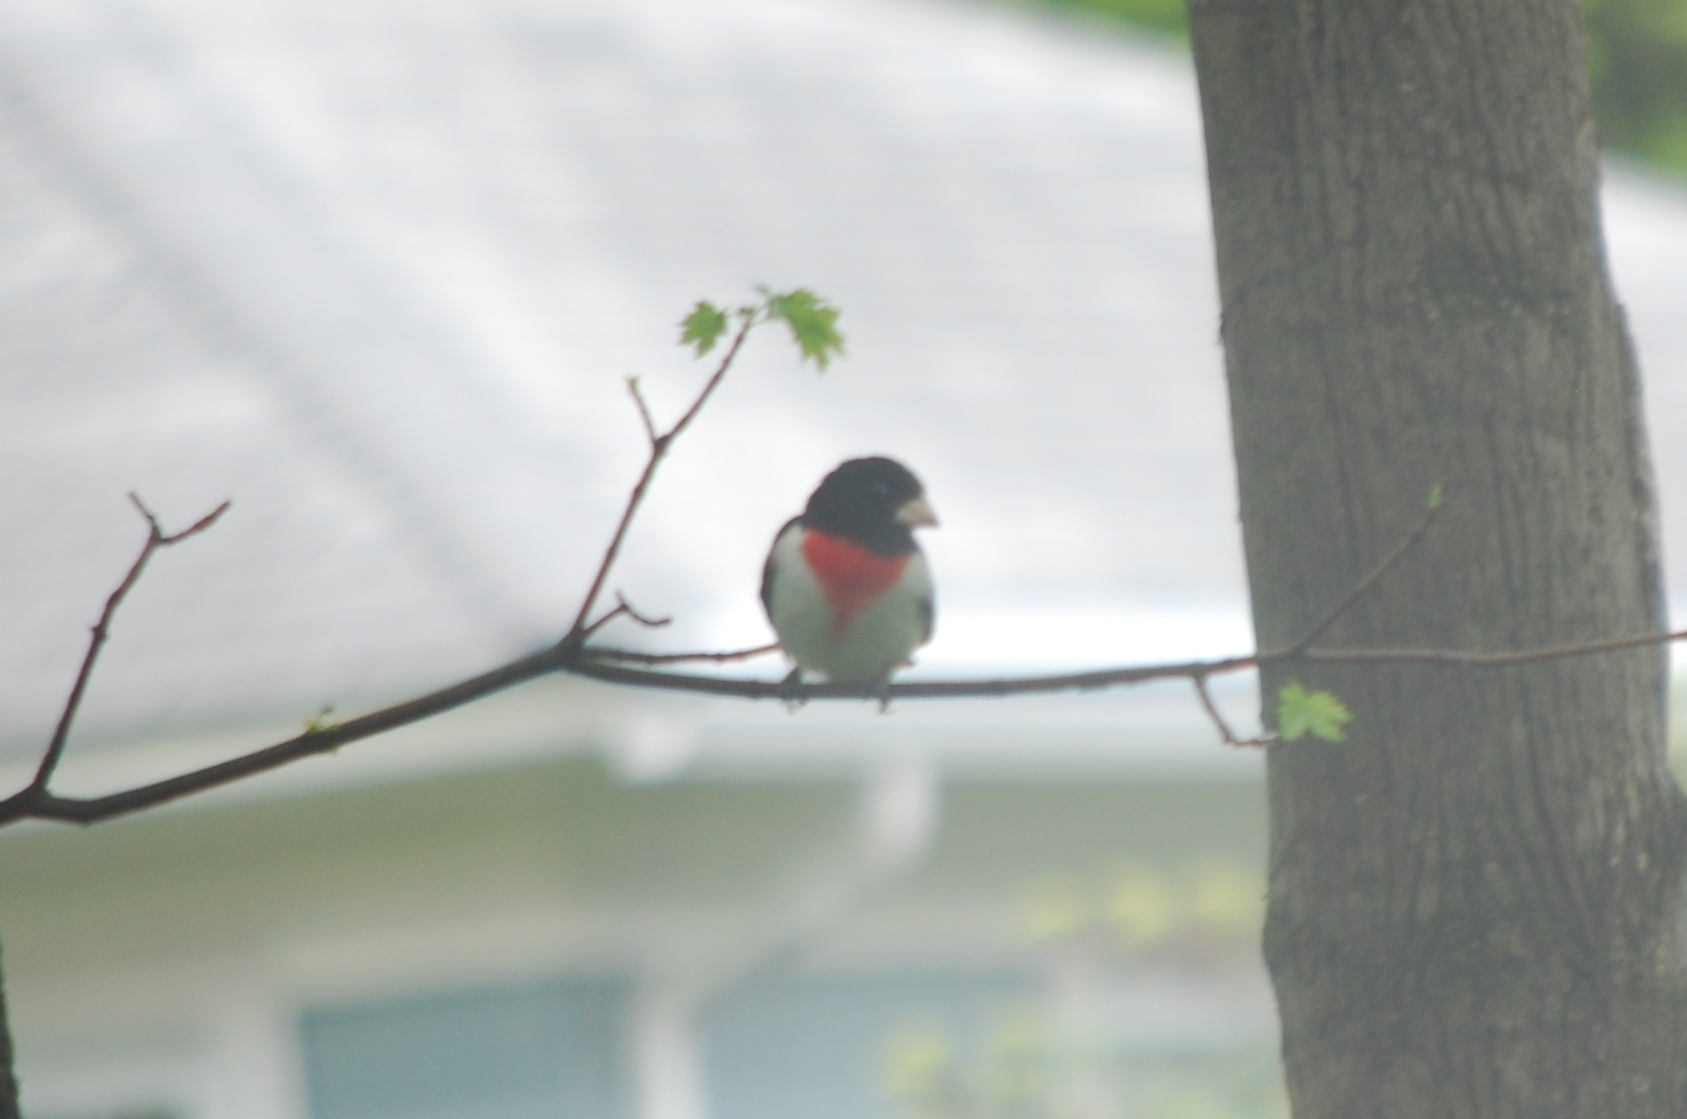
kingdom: Animalia
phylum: Chordata
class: Aves
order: Passeriformes
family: Cardinalidae
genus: Pheucticus
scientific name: Pheucticus ludovicianus
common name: Rose-breasted grosbeak
